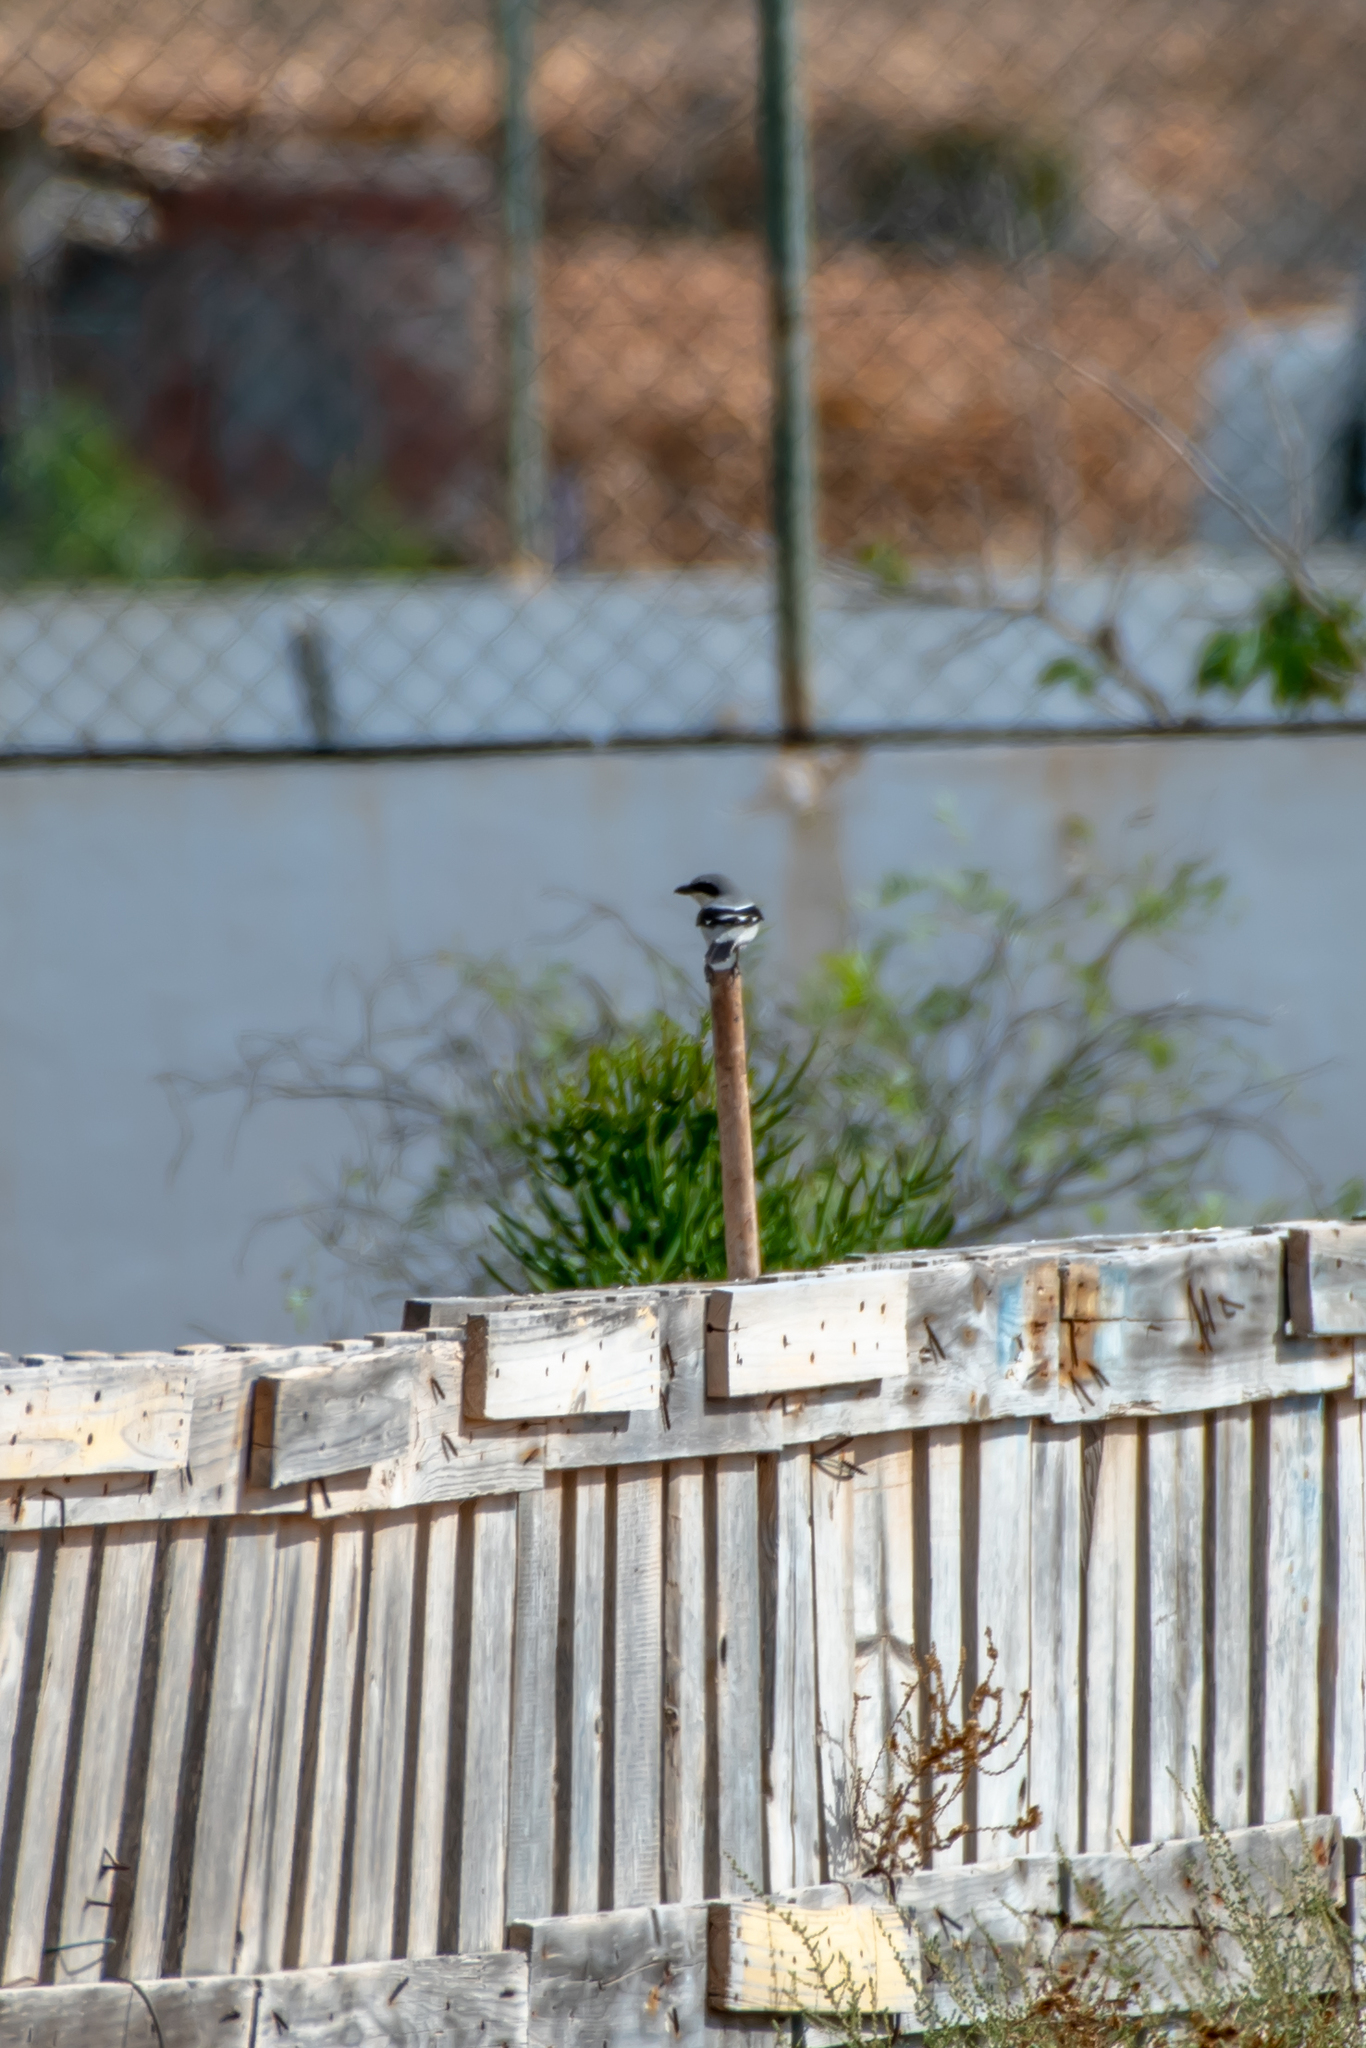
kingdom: Animalia
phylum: Chordata
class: Aves
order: Passeriformes
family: Laniidae
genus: Lanius
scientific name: Lanius excubitor
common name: Great grey shrike
